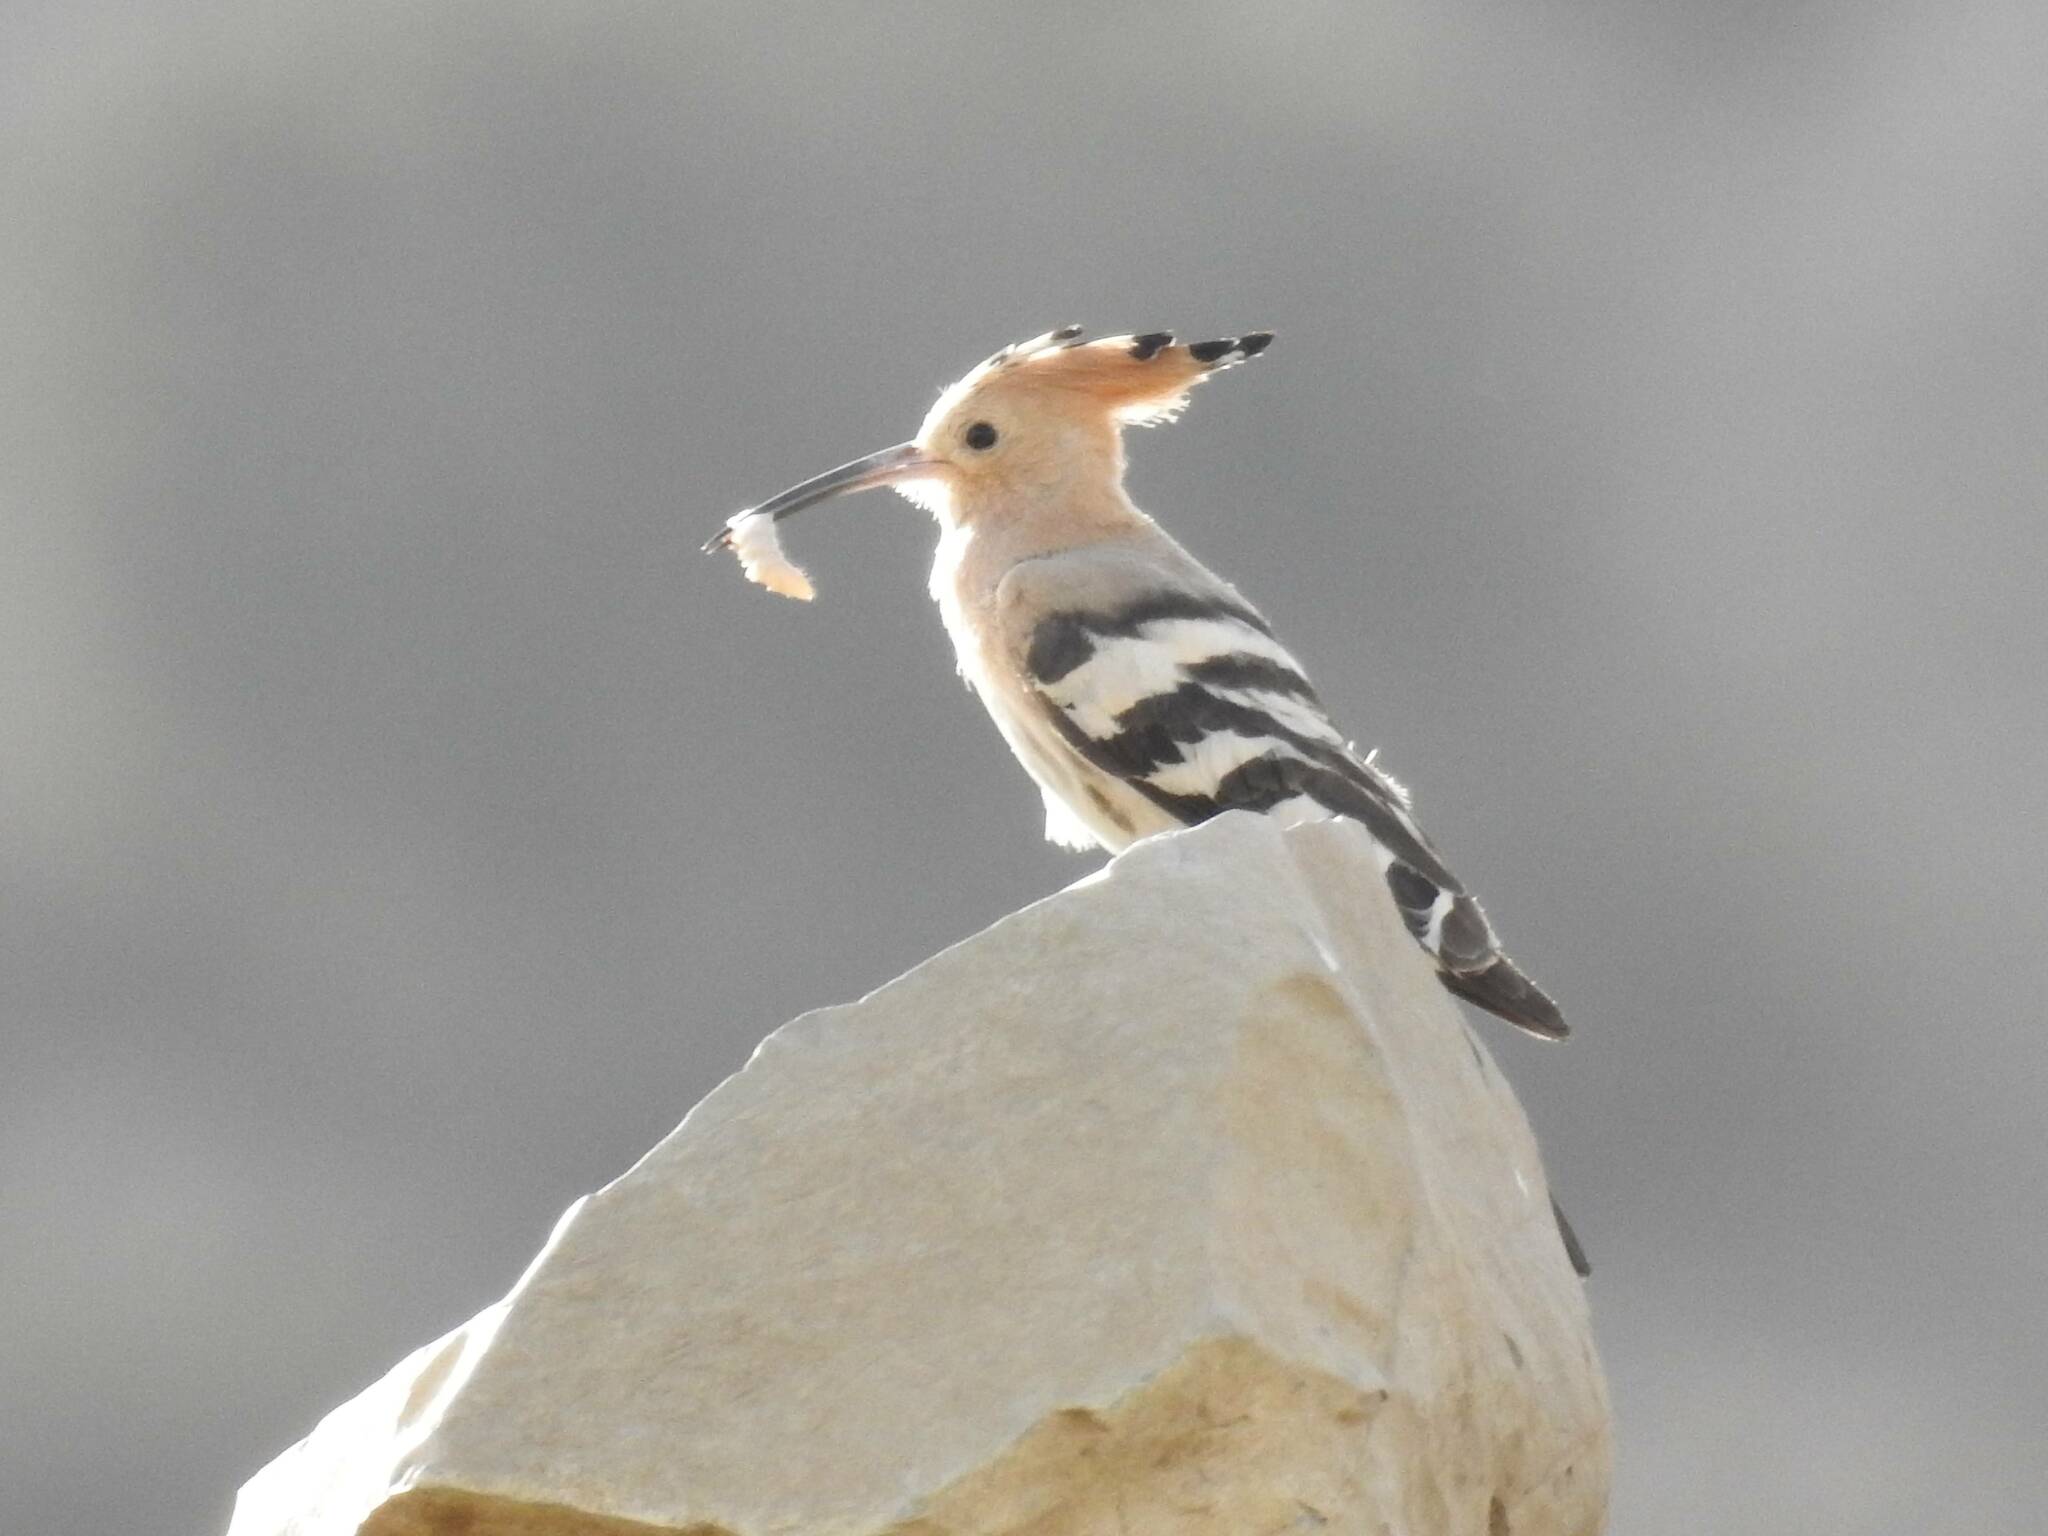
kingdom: Animalia
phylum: Chordata
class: Aves
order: Bucerotiformes
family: Upupidae
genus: Upupa
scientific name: Upupa epops
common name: Eurasian hoopoe
